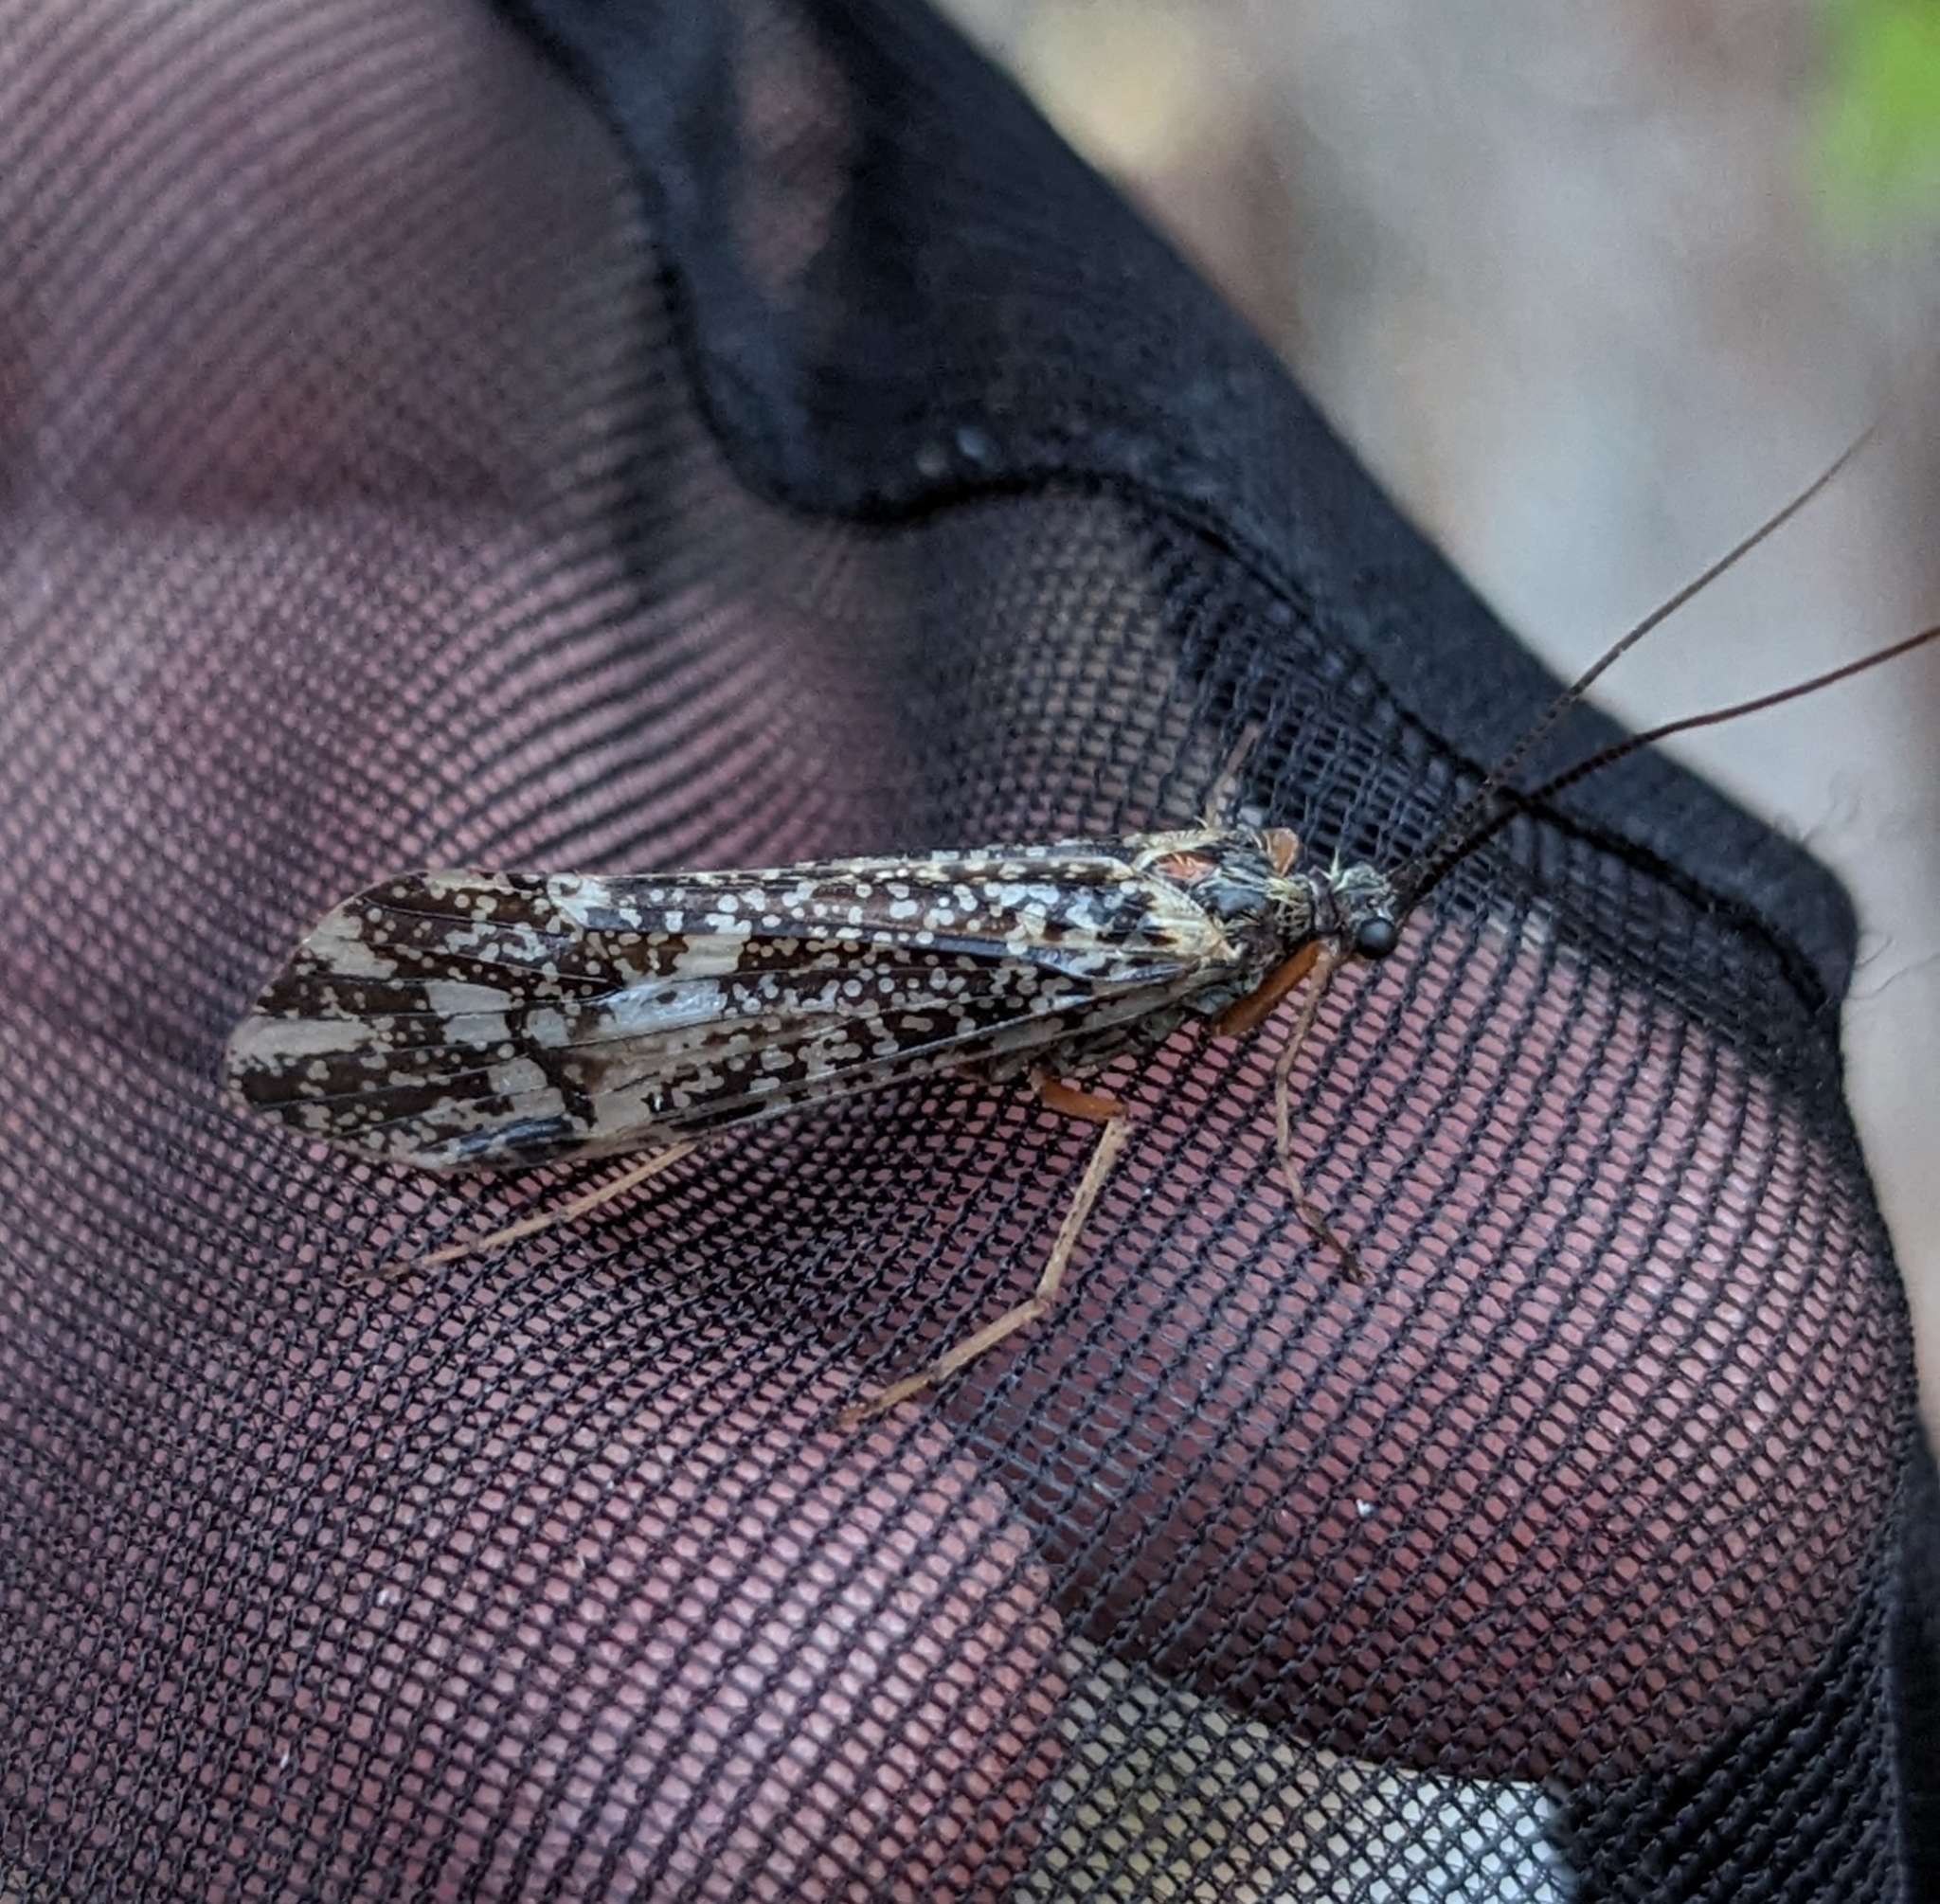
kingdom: Animalia
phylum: Arthropoda
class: Insecta
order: Trichoptera
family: Limnephilidae
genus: Clistoronia
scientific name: Clistoronia magnifica
